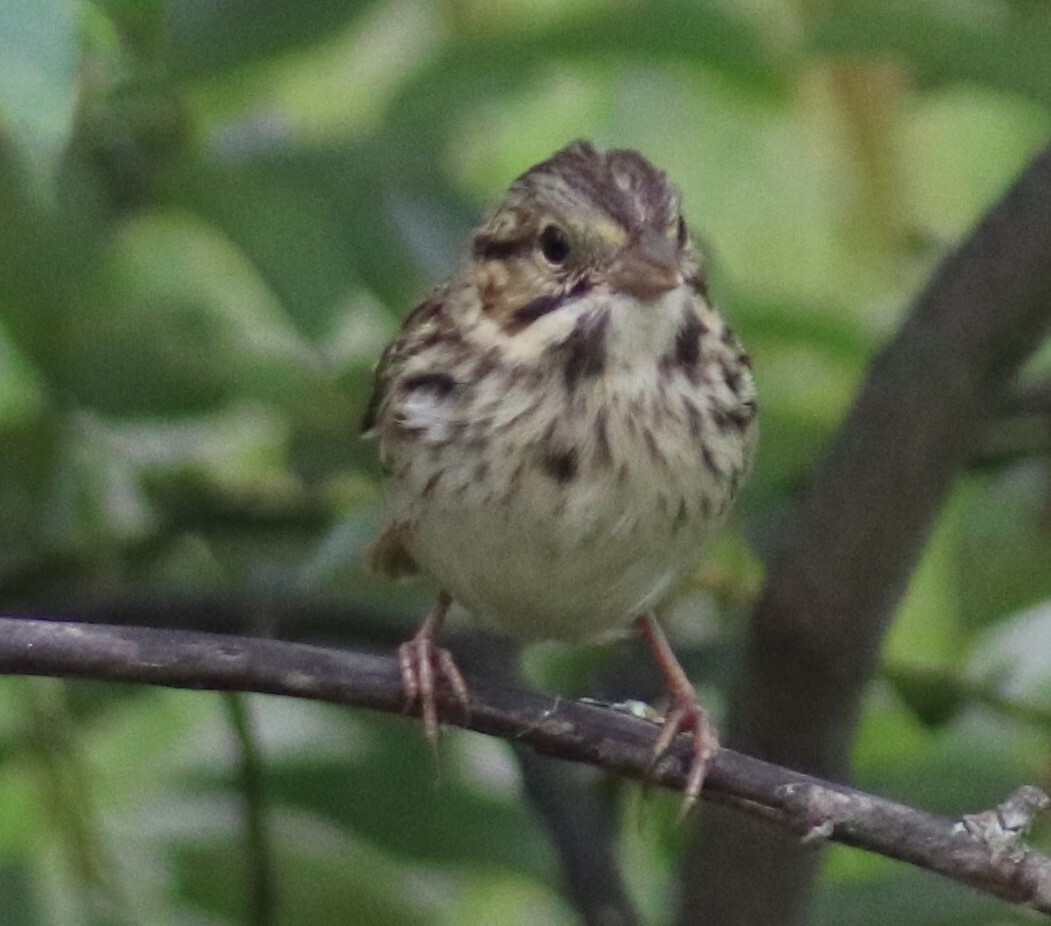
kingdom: Animalia
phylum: Chordata
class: Aves
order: Passeriformes
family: Passerellidae
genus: Melospiza
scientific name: Melospiza melodia
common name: Song sparrow
